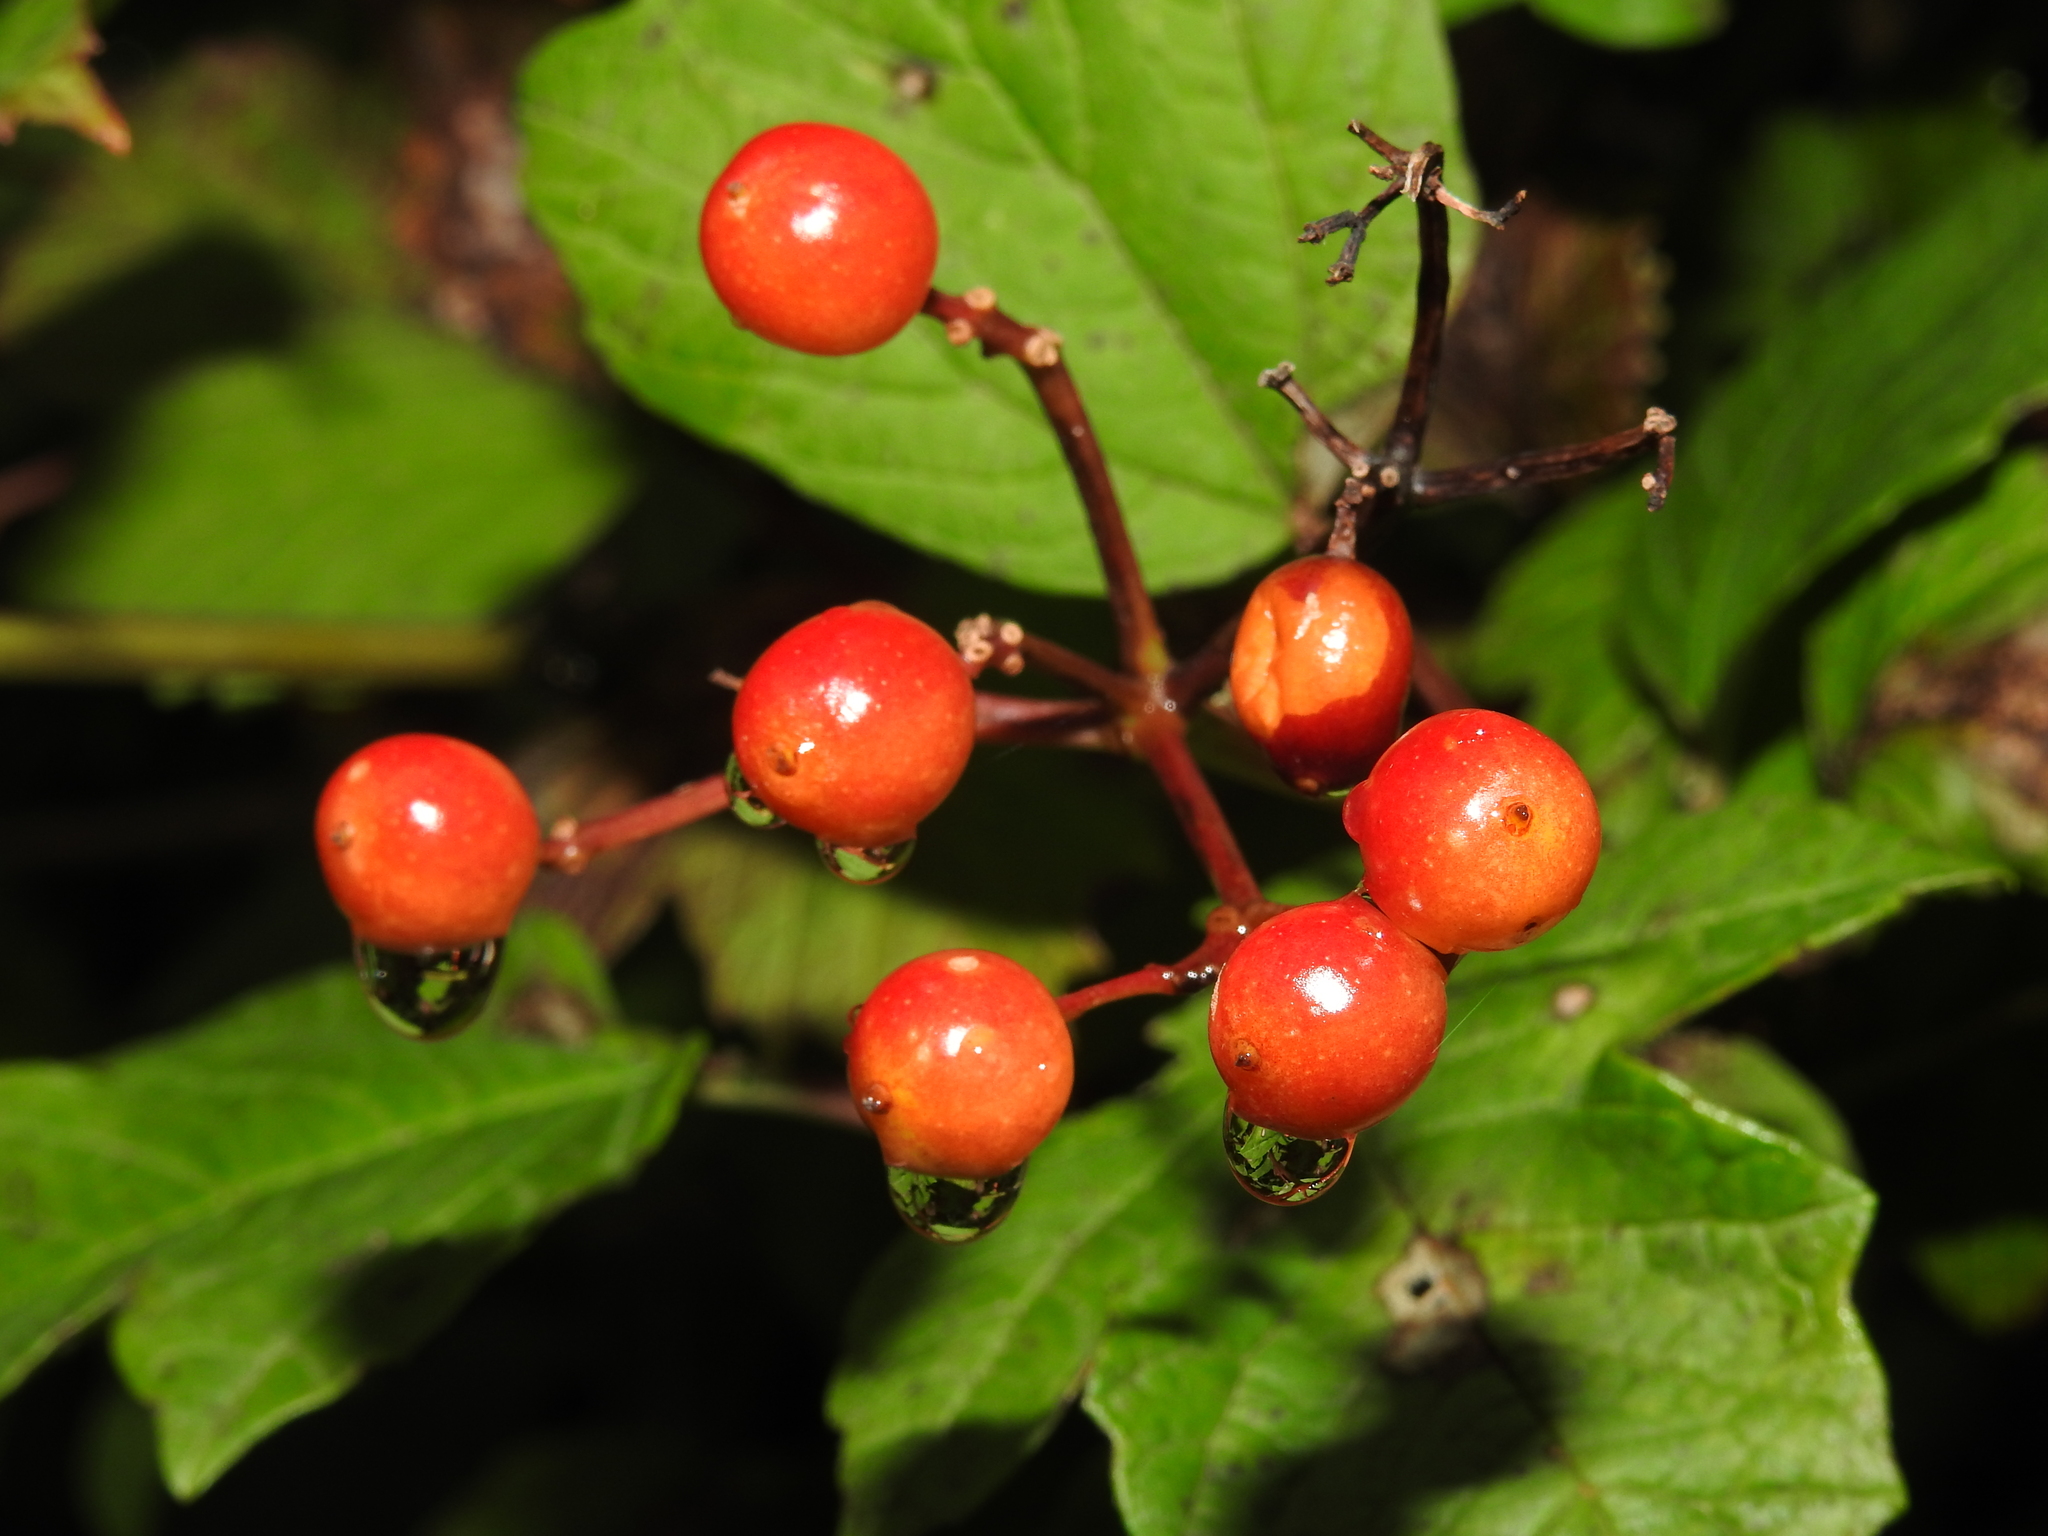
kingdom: Plantae
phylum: Tracheophyta
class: Magnoliopsida
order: Dipsacales
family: Viburnaceae
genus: Viburnum
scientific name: Viburnum opulus
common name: Guelder-rose
